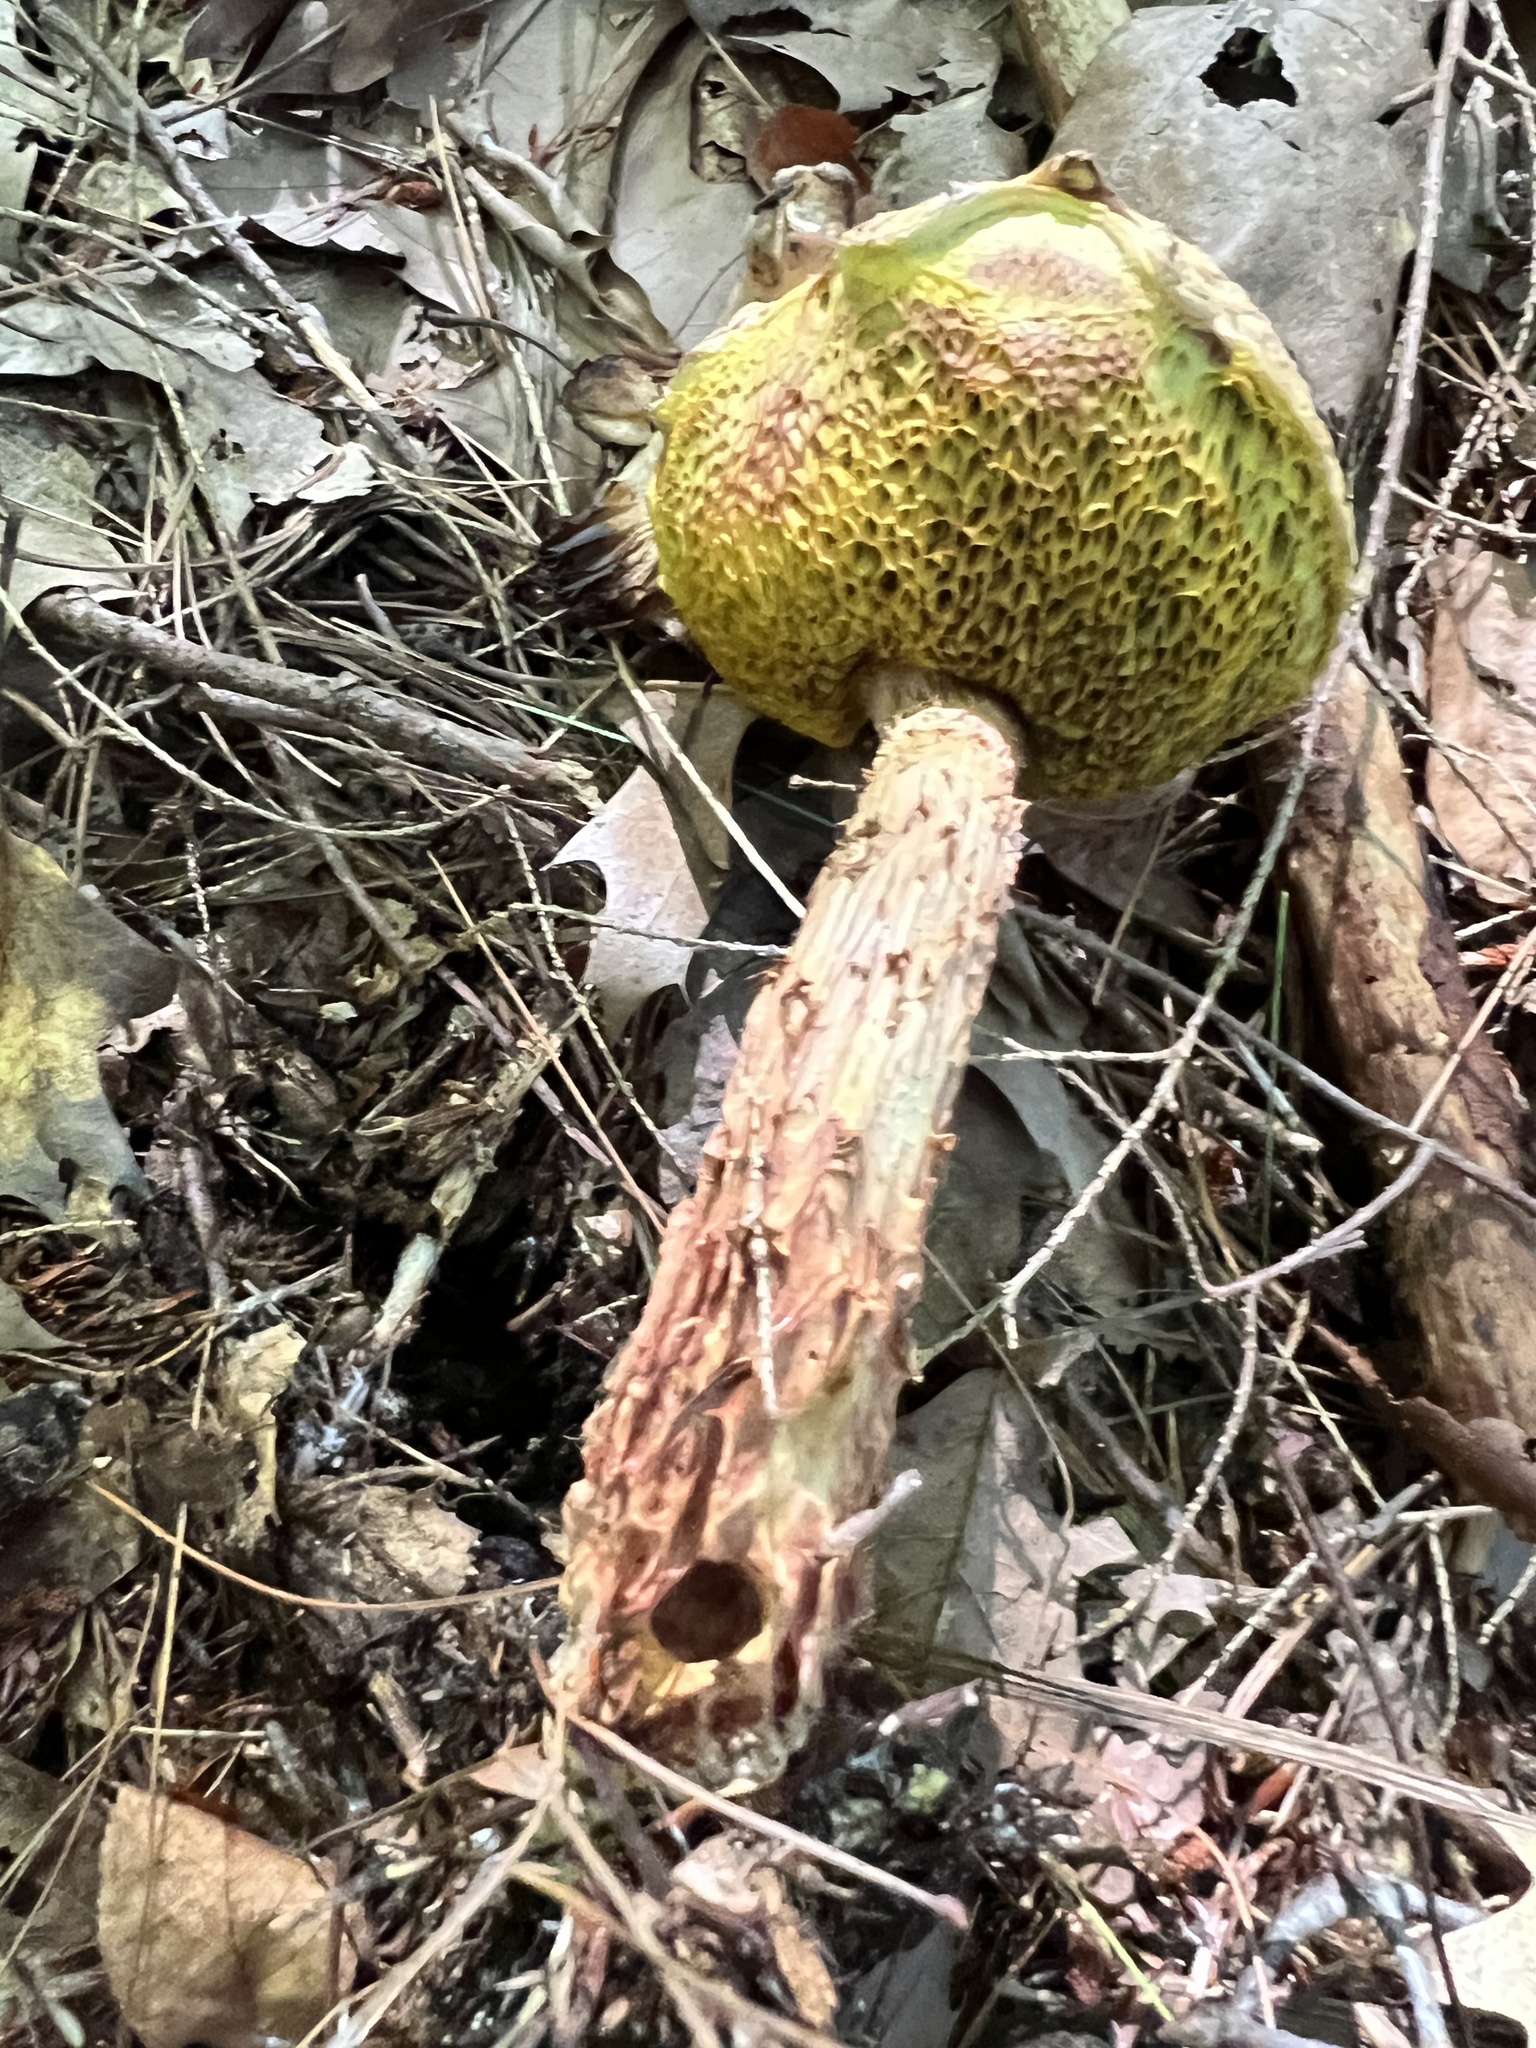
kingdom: Fungi
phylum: Basidiomycota
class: Agaricomycetes
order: Boletales
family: Boletaceae
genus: Aureoboletus
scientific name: Aureoboletus russellii
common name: Russell's bolete
